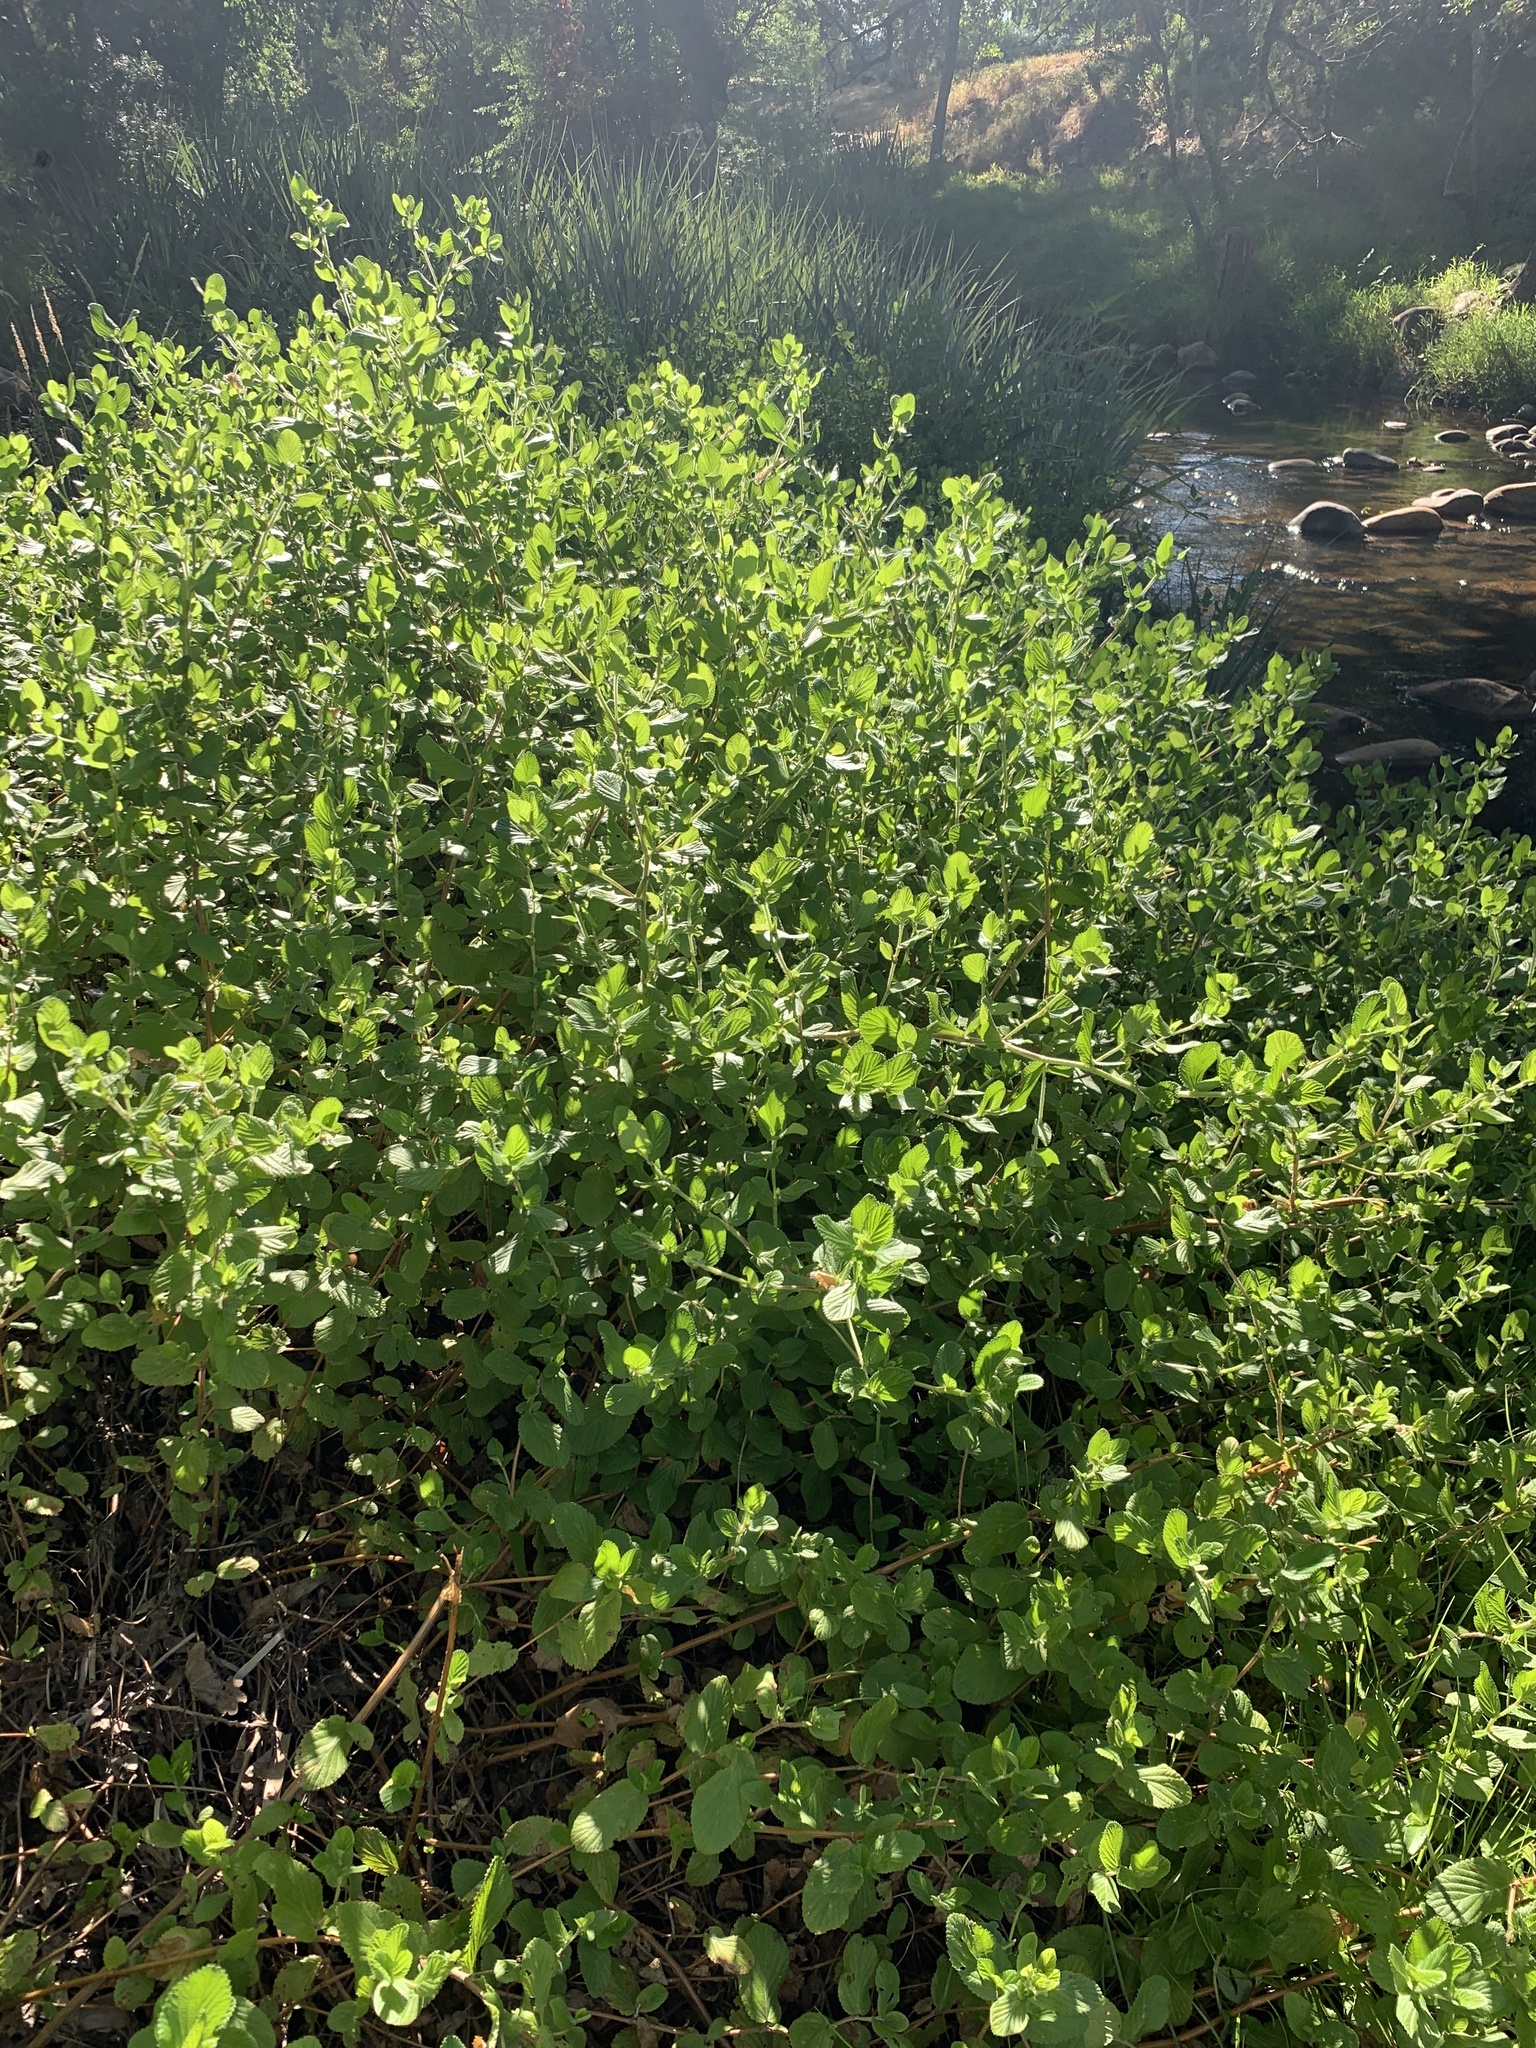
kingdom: Plantae
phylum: Tracheophyta
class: Magnoliopsida
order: Rosales
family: Rosaceae
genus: Cliffortia
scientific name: Cliffortia odorata
